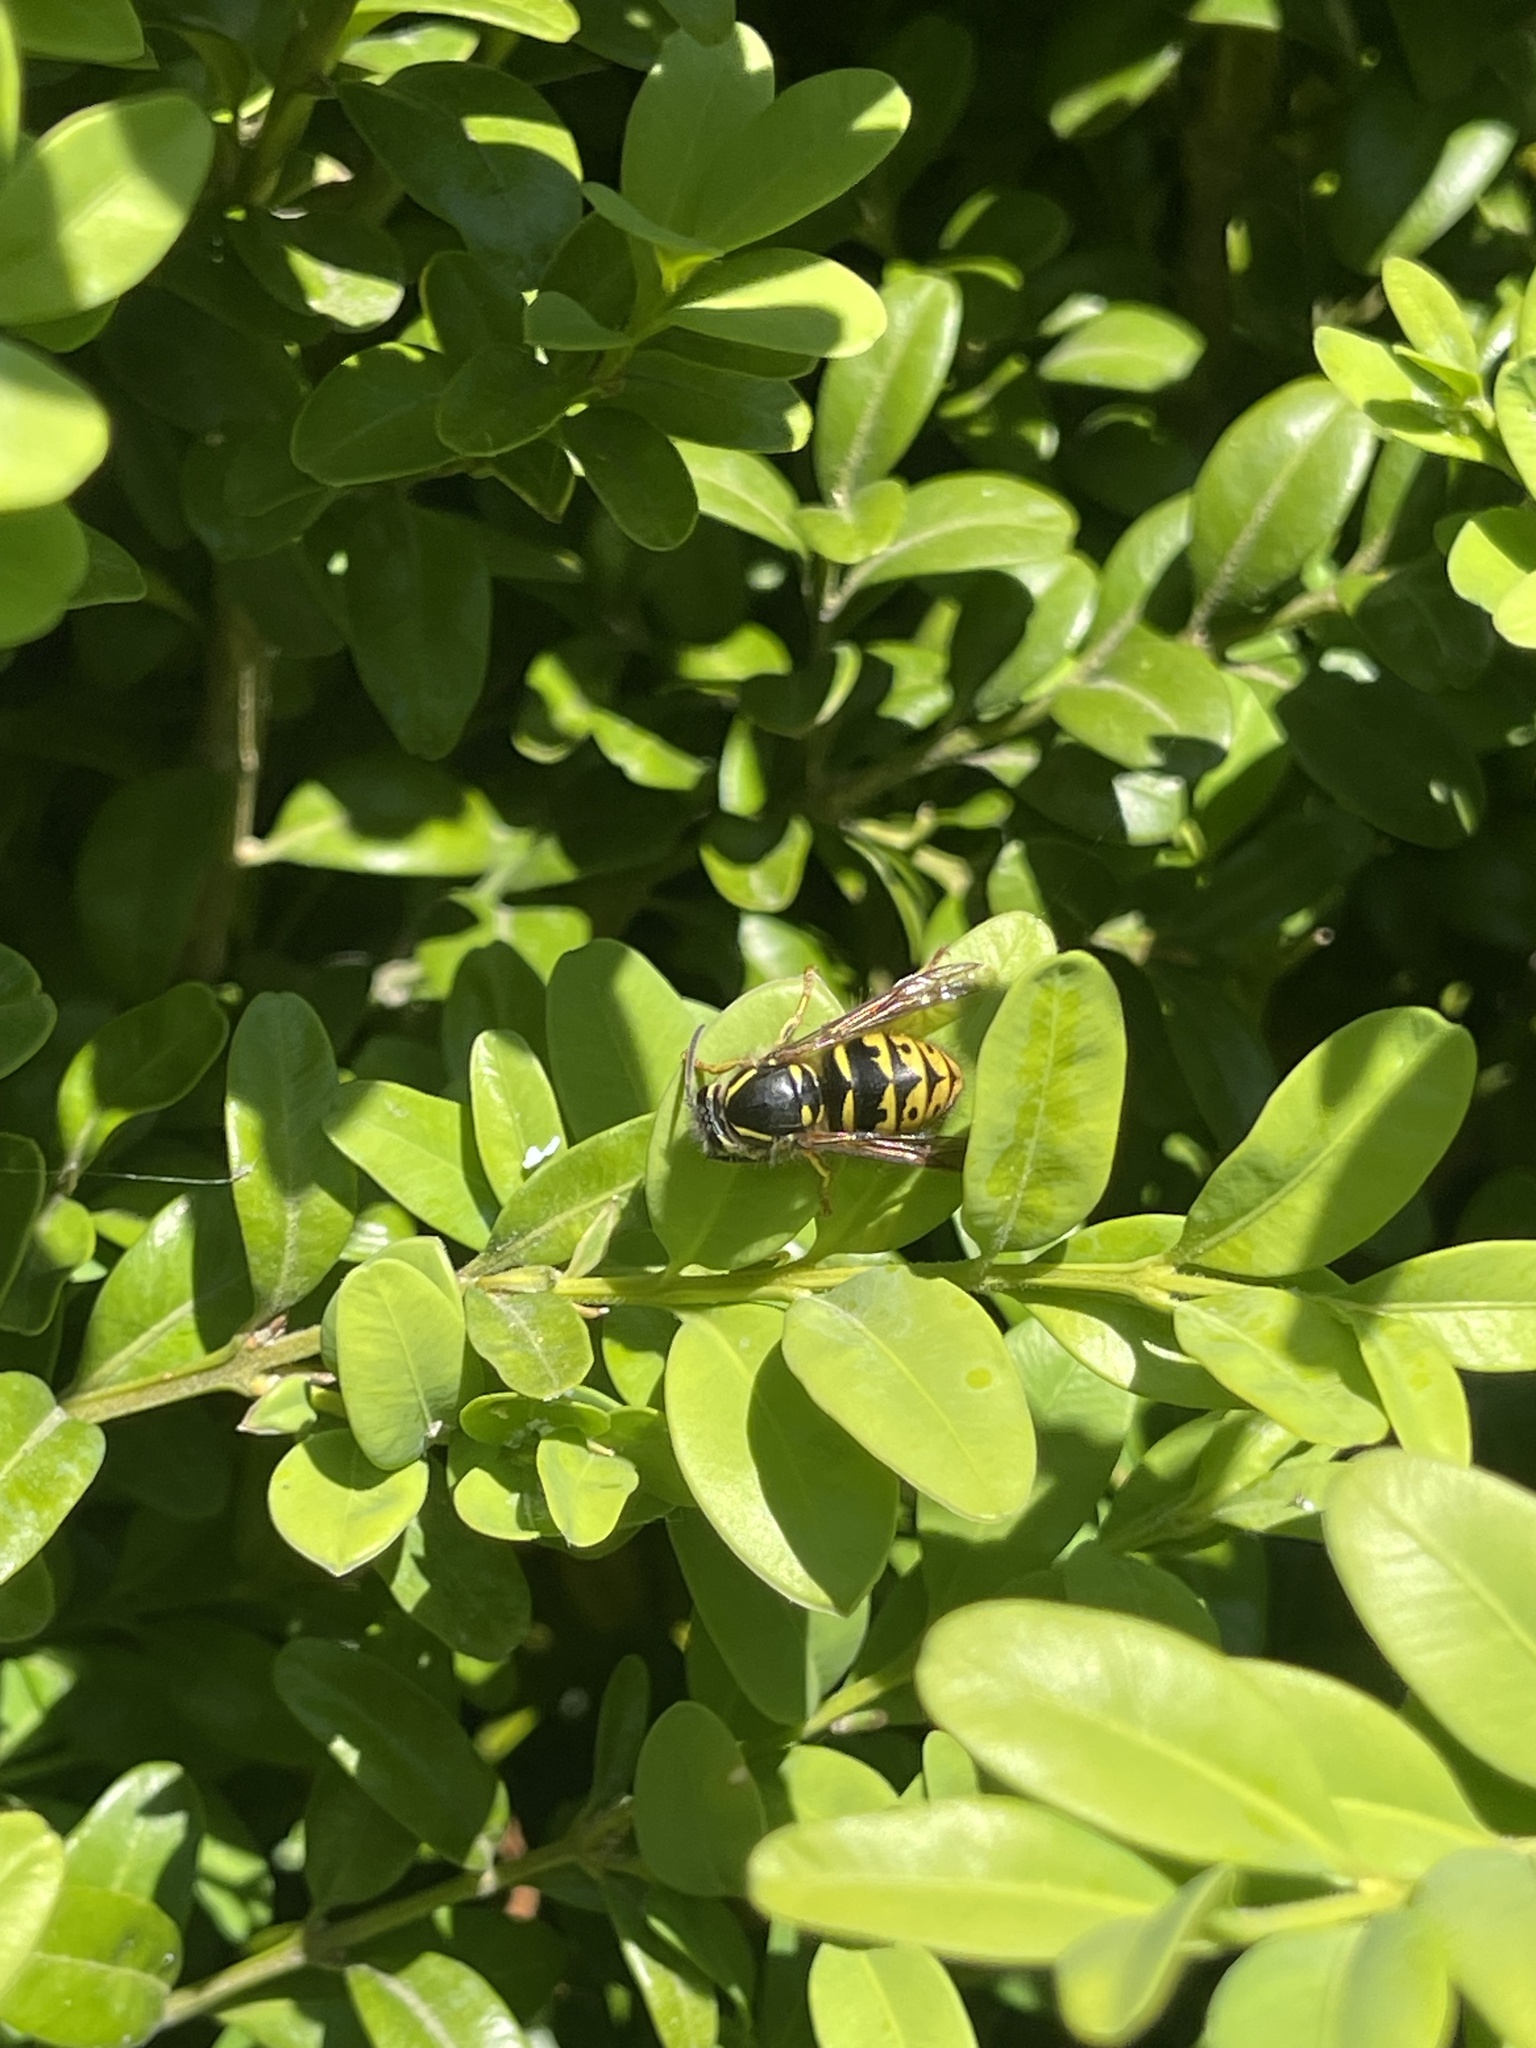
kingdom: Animalia
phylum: Arthropoda
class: Insecta
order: Hymenoptera
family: Vespidae
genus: Dolichovespula
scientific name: Dolichovespula arenaria
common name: Aerial yellowjacket
